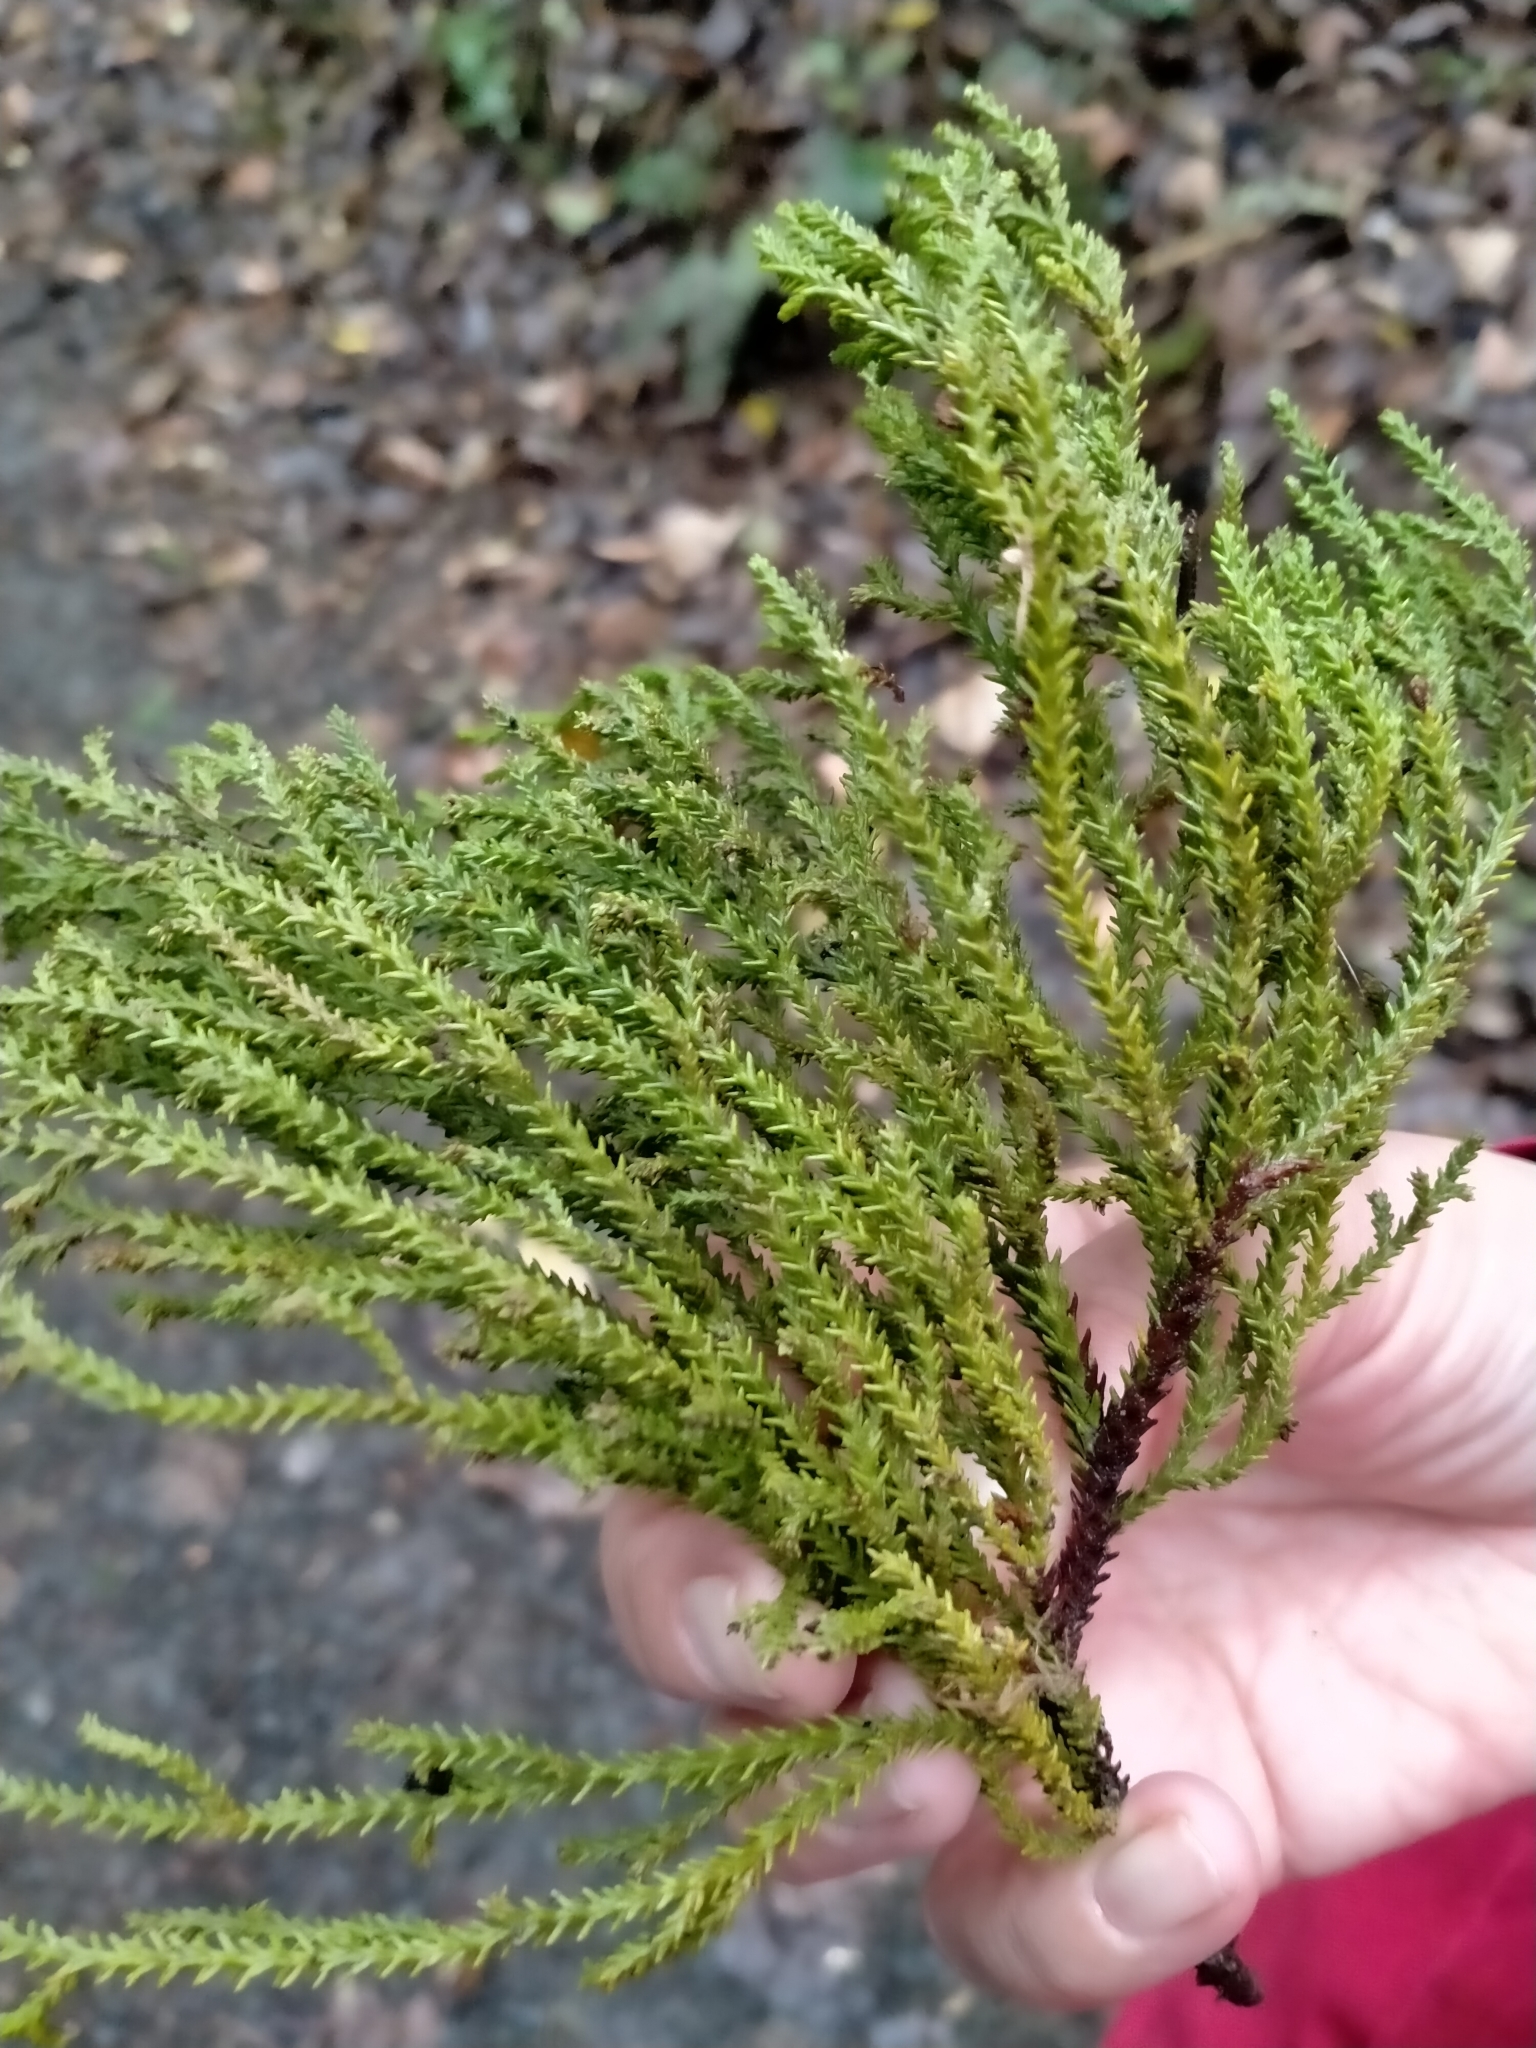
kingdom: Plantae
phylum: Tracheophyta
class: Pinopsida
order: Pinales
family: Podocarpaceae
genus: Dacrydium
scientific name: Dacrydium cupressinum
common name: Red pine
